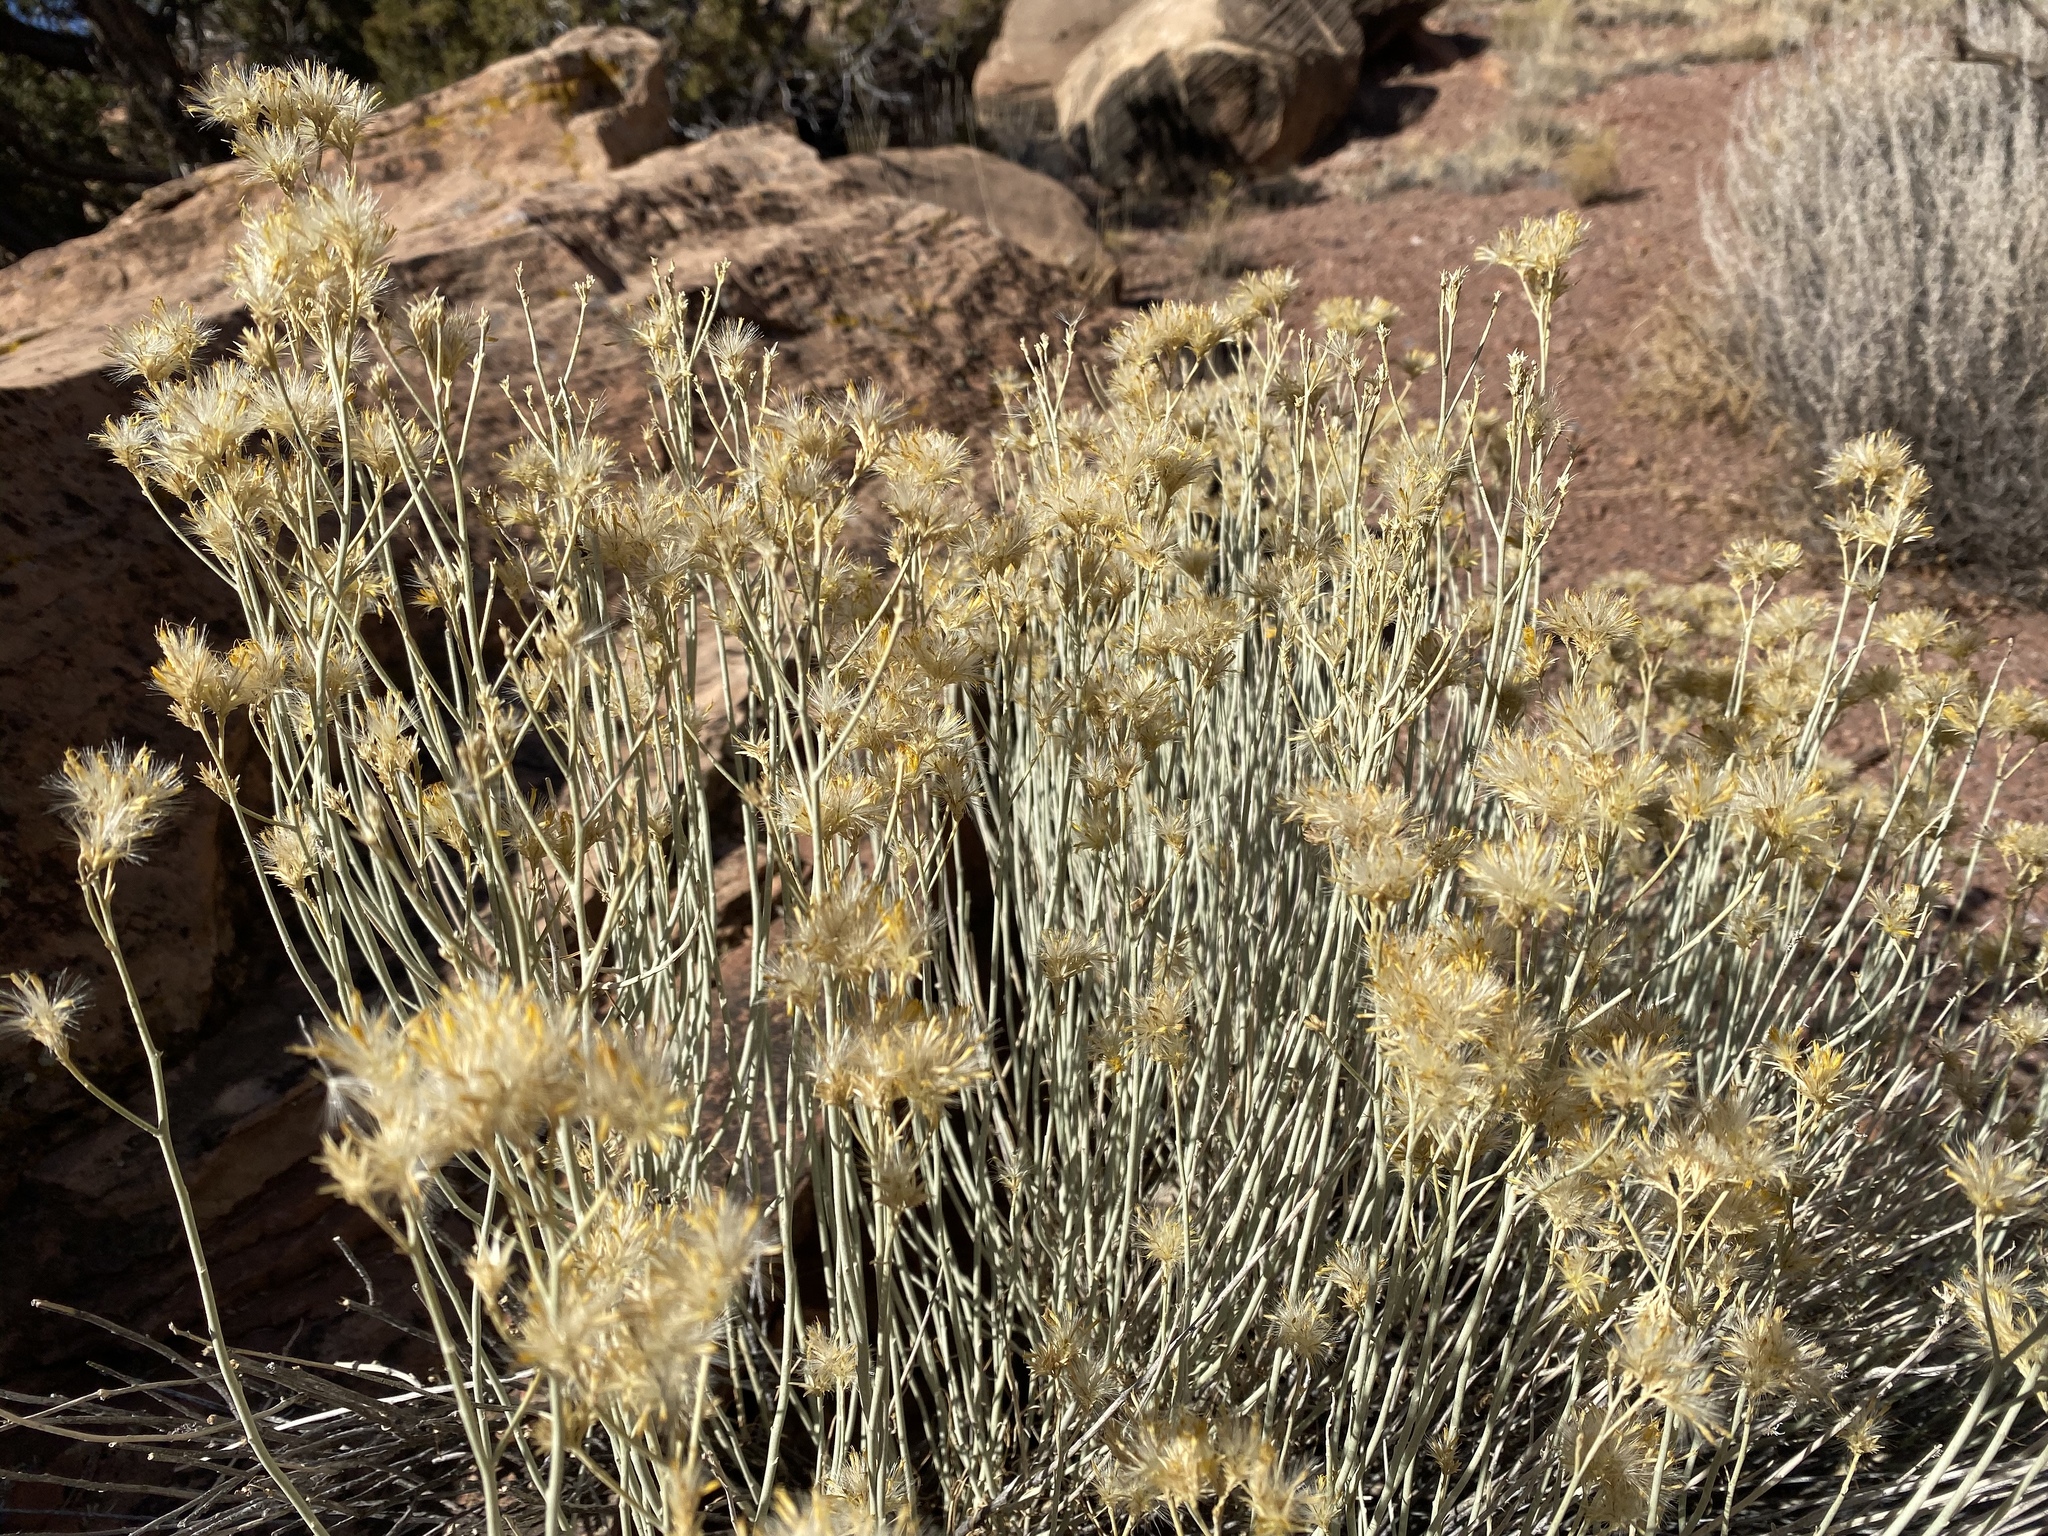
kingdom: Plantae
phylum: Tracheophyta
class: Magnoliopsida
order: Asterales
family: Asteraceae
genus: Ericameria
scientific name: Ericameria nauseosa
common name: Rubber rabbitbrush
